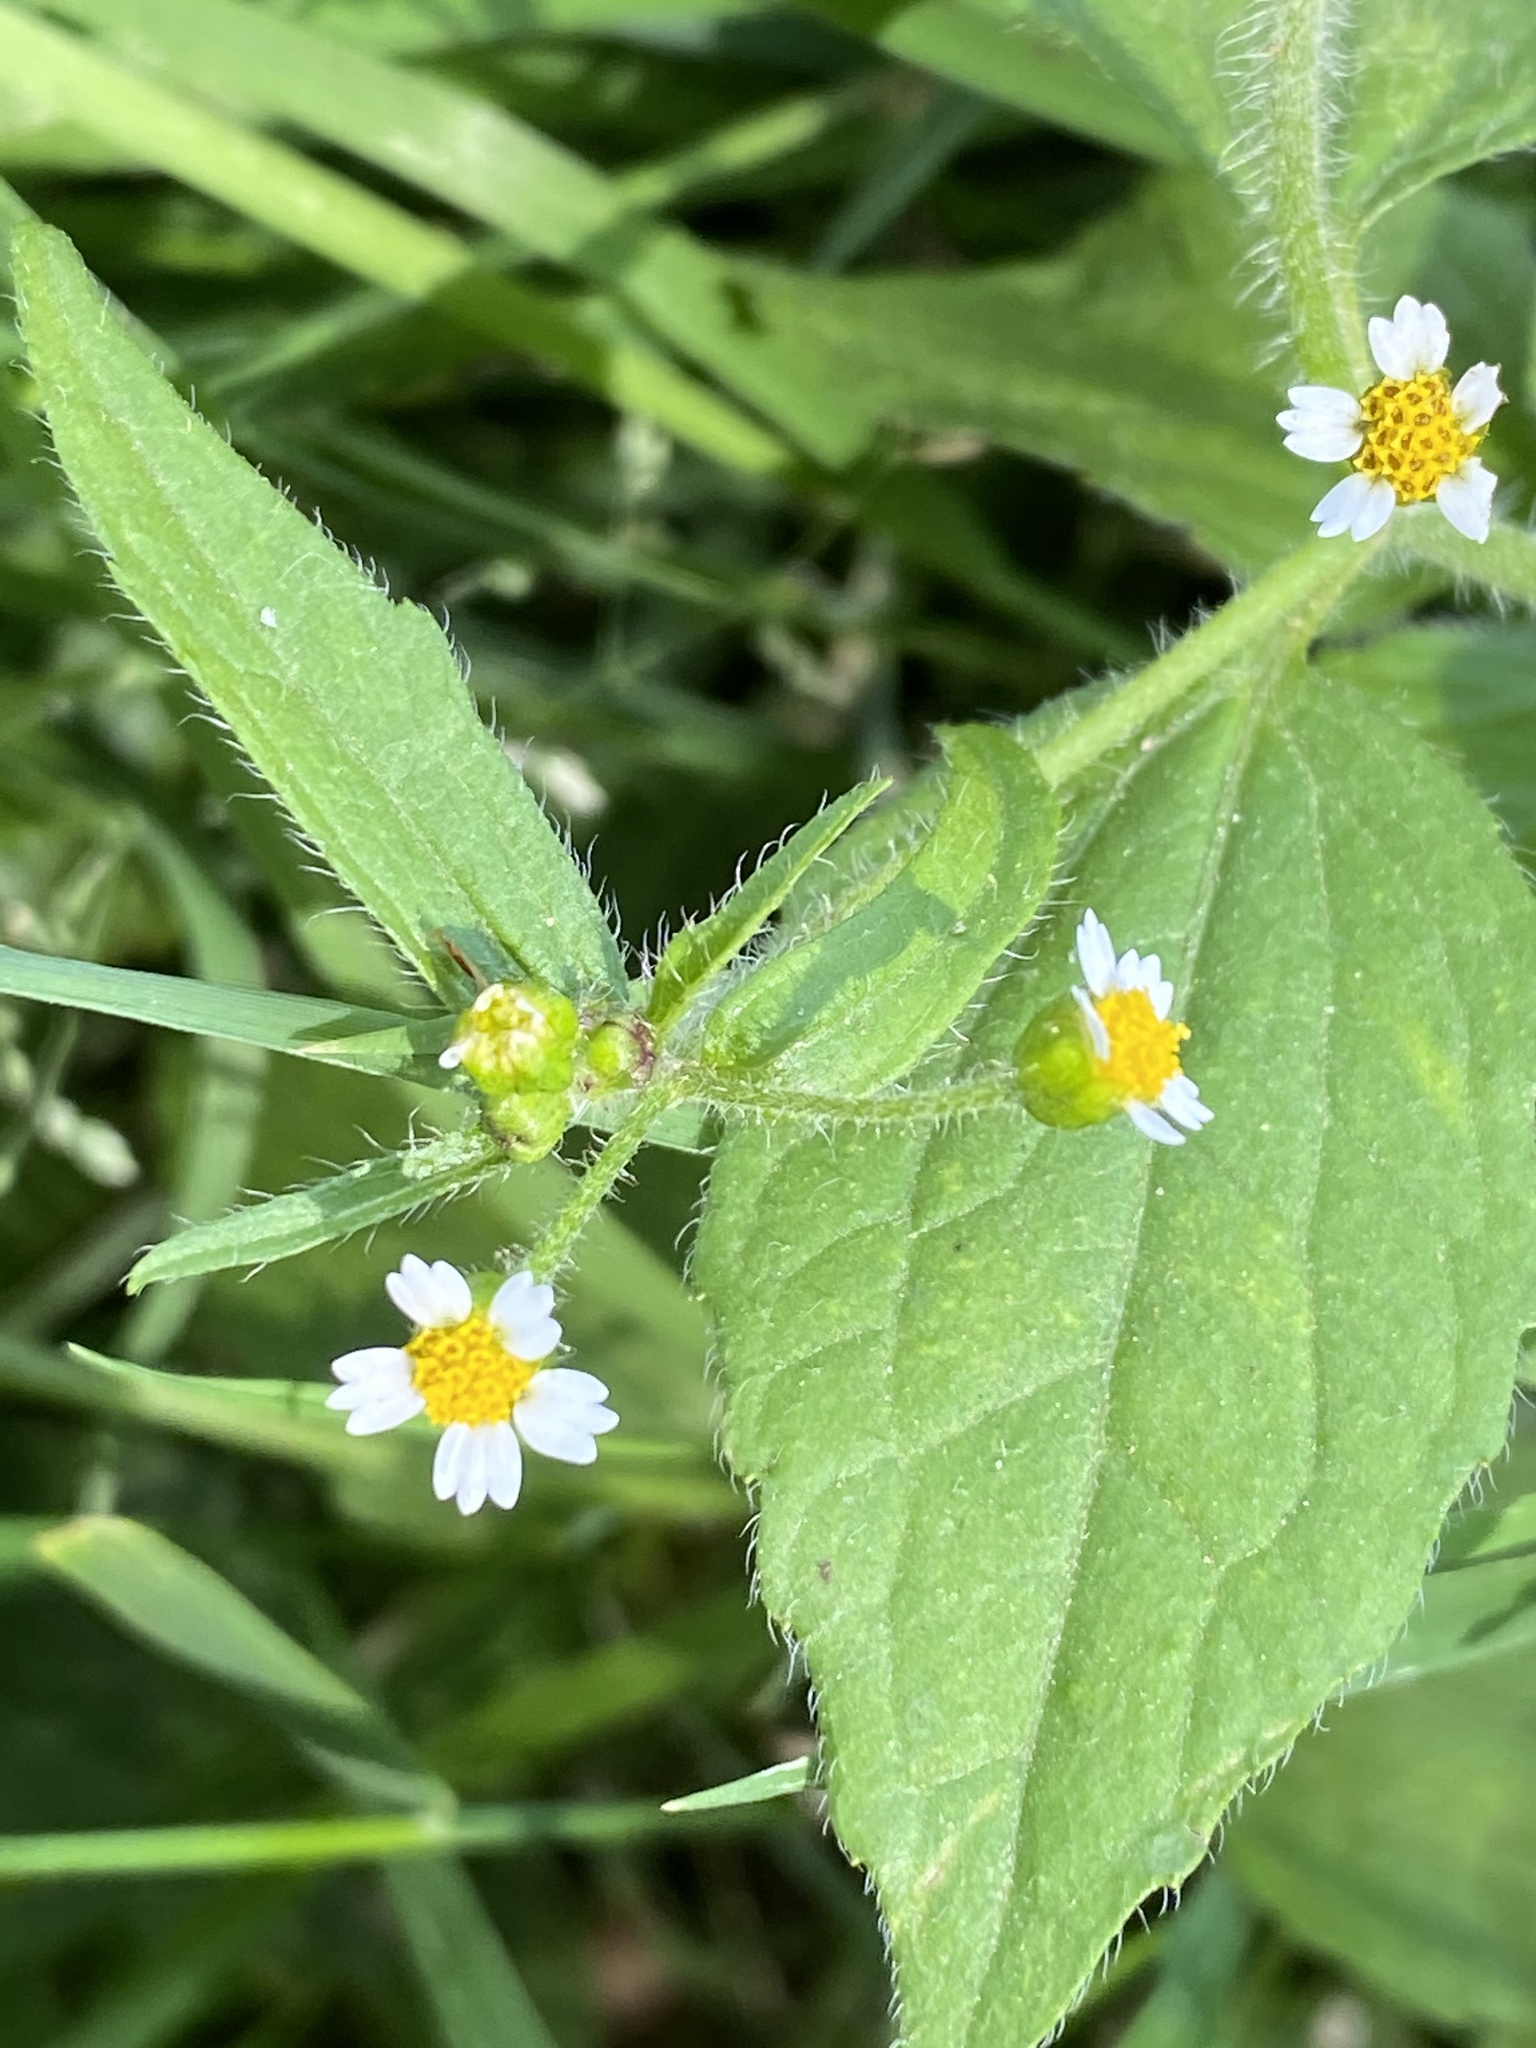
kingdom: Plantae
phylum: Tracheophyta
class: Magnoliopsida
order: Asterales
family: Asteraceae
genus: Galinsoga
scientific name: Galinsoga quadriradiata
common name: Shaggy soldier
